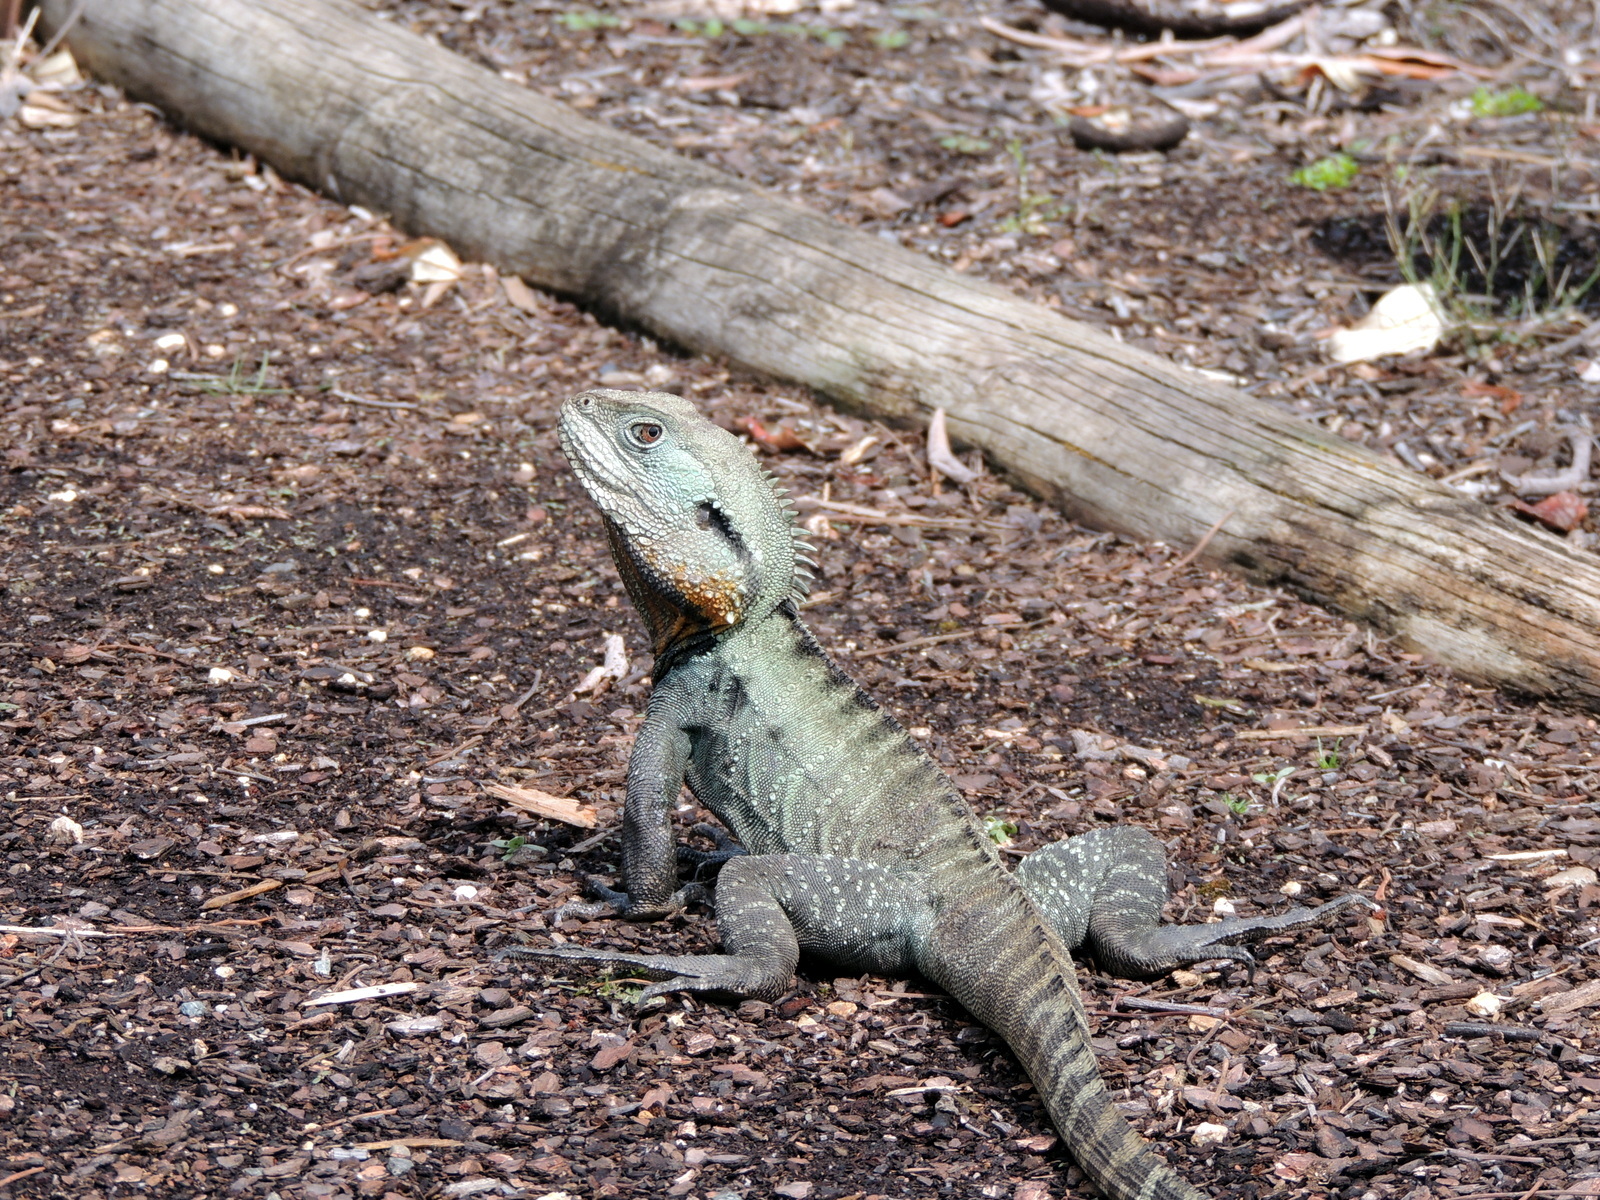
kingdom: Animalia
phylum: Chordata
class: Squamata
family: Agamidae
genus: Intellagama
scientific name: Intellagama lesueurii
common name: Eastern water dragon
